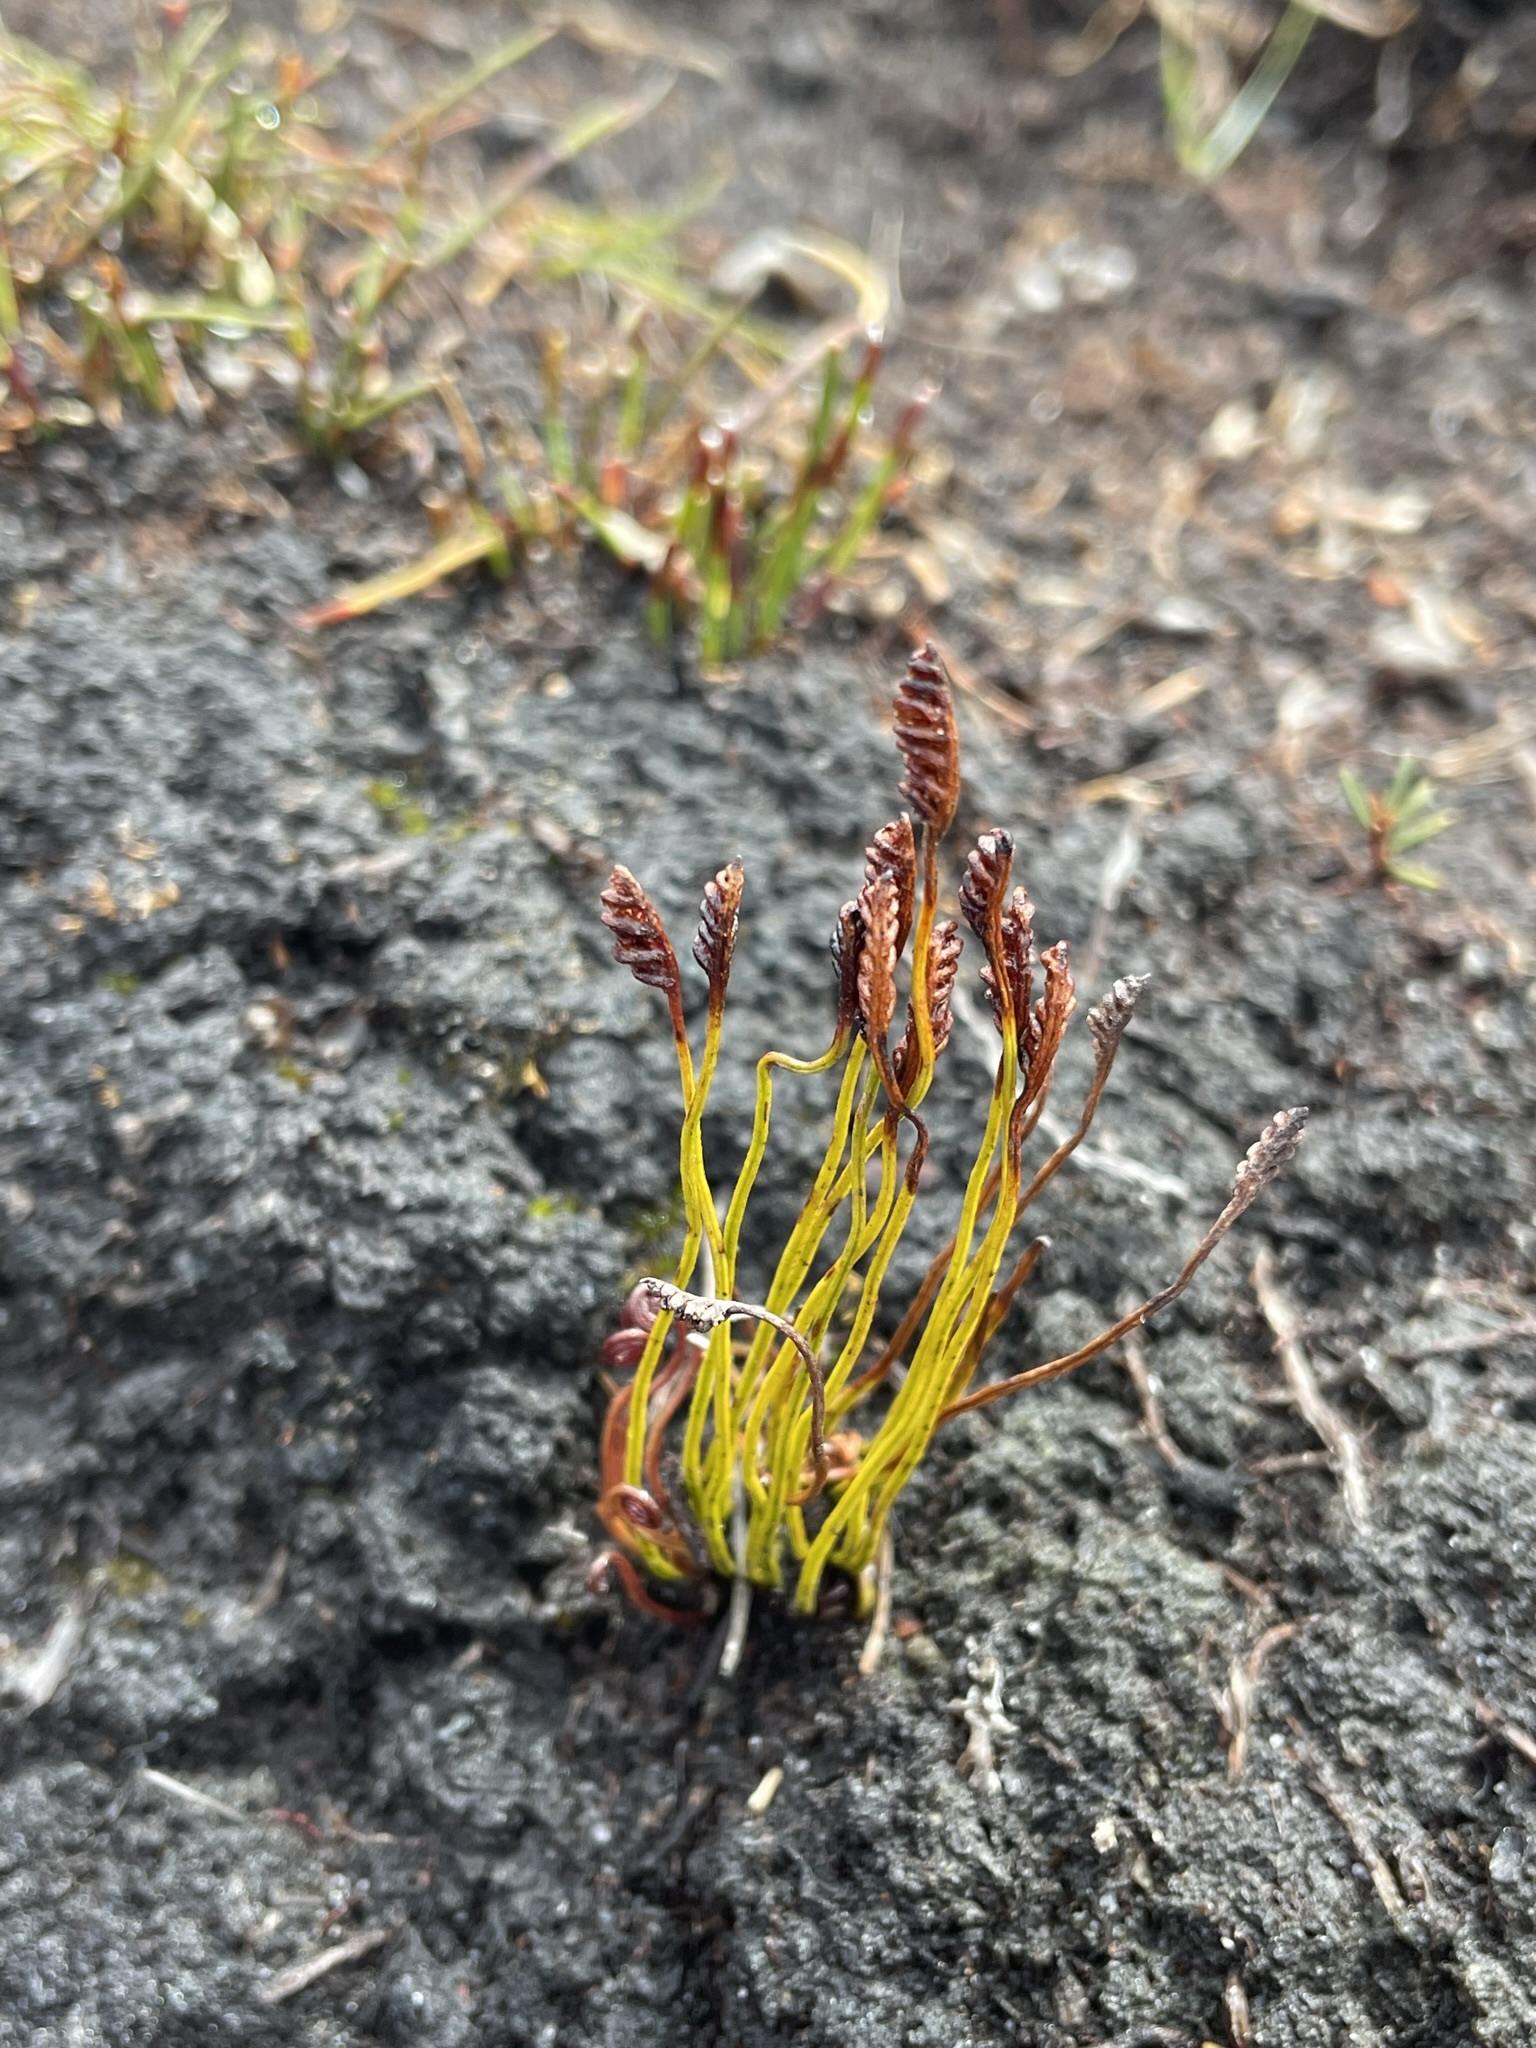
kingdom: Plantae
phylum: Tracheophyta
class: Polypodiopsida
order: Schizaeales
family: Schizaeaceae
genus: Microschizaea
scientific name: Microschizaea fistulosa
